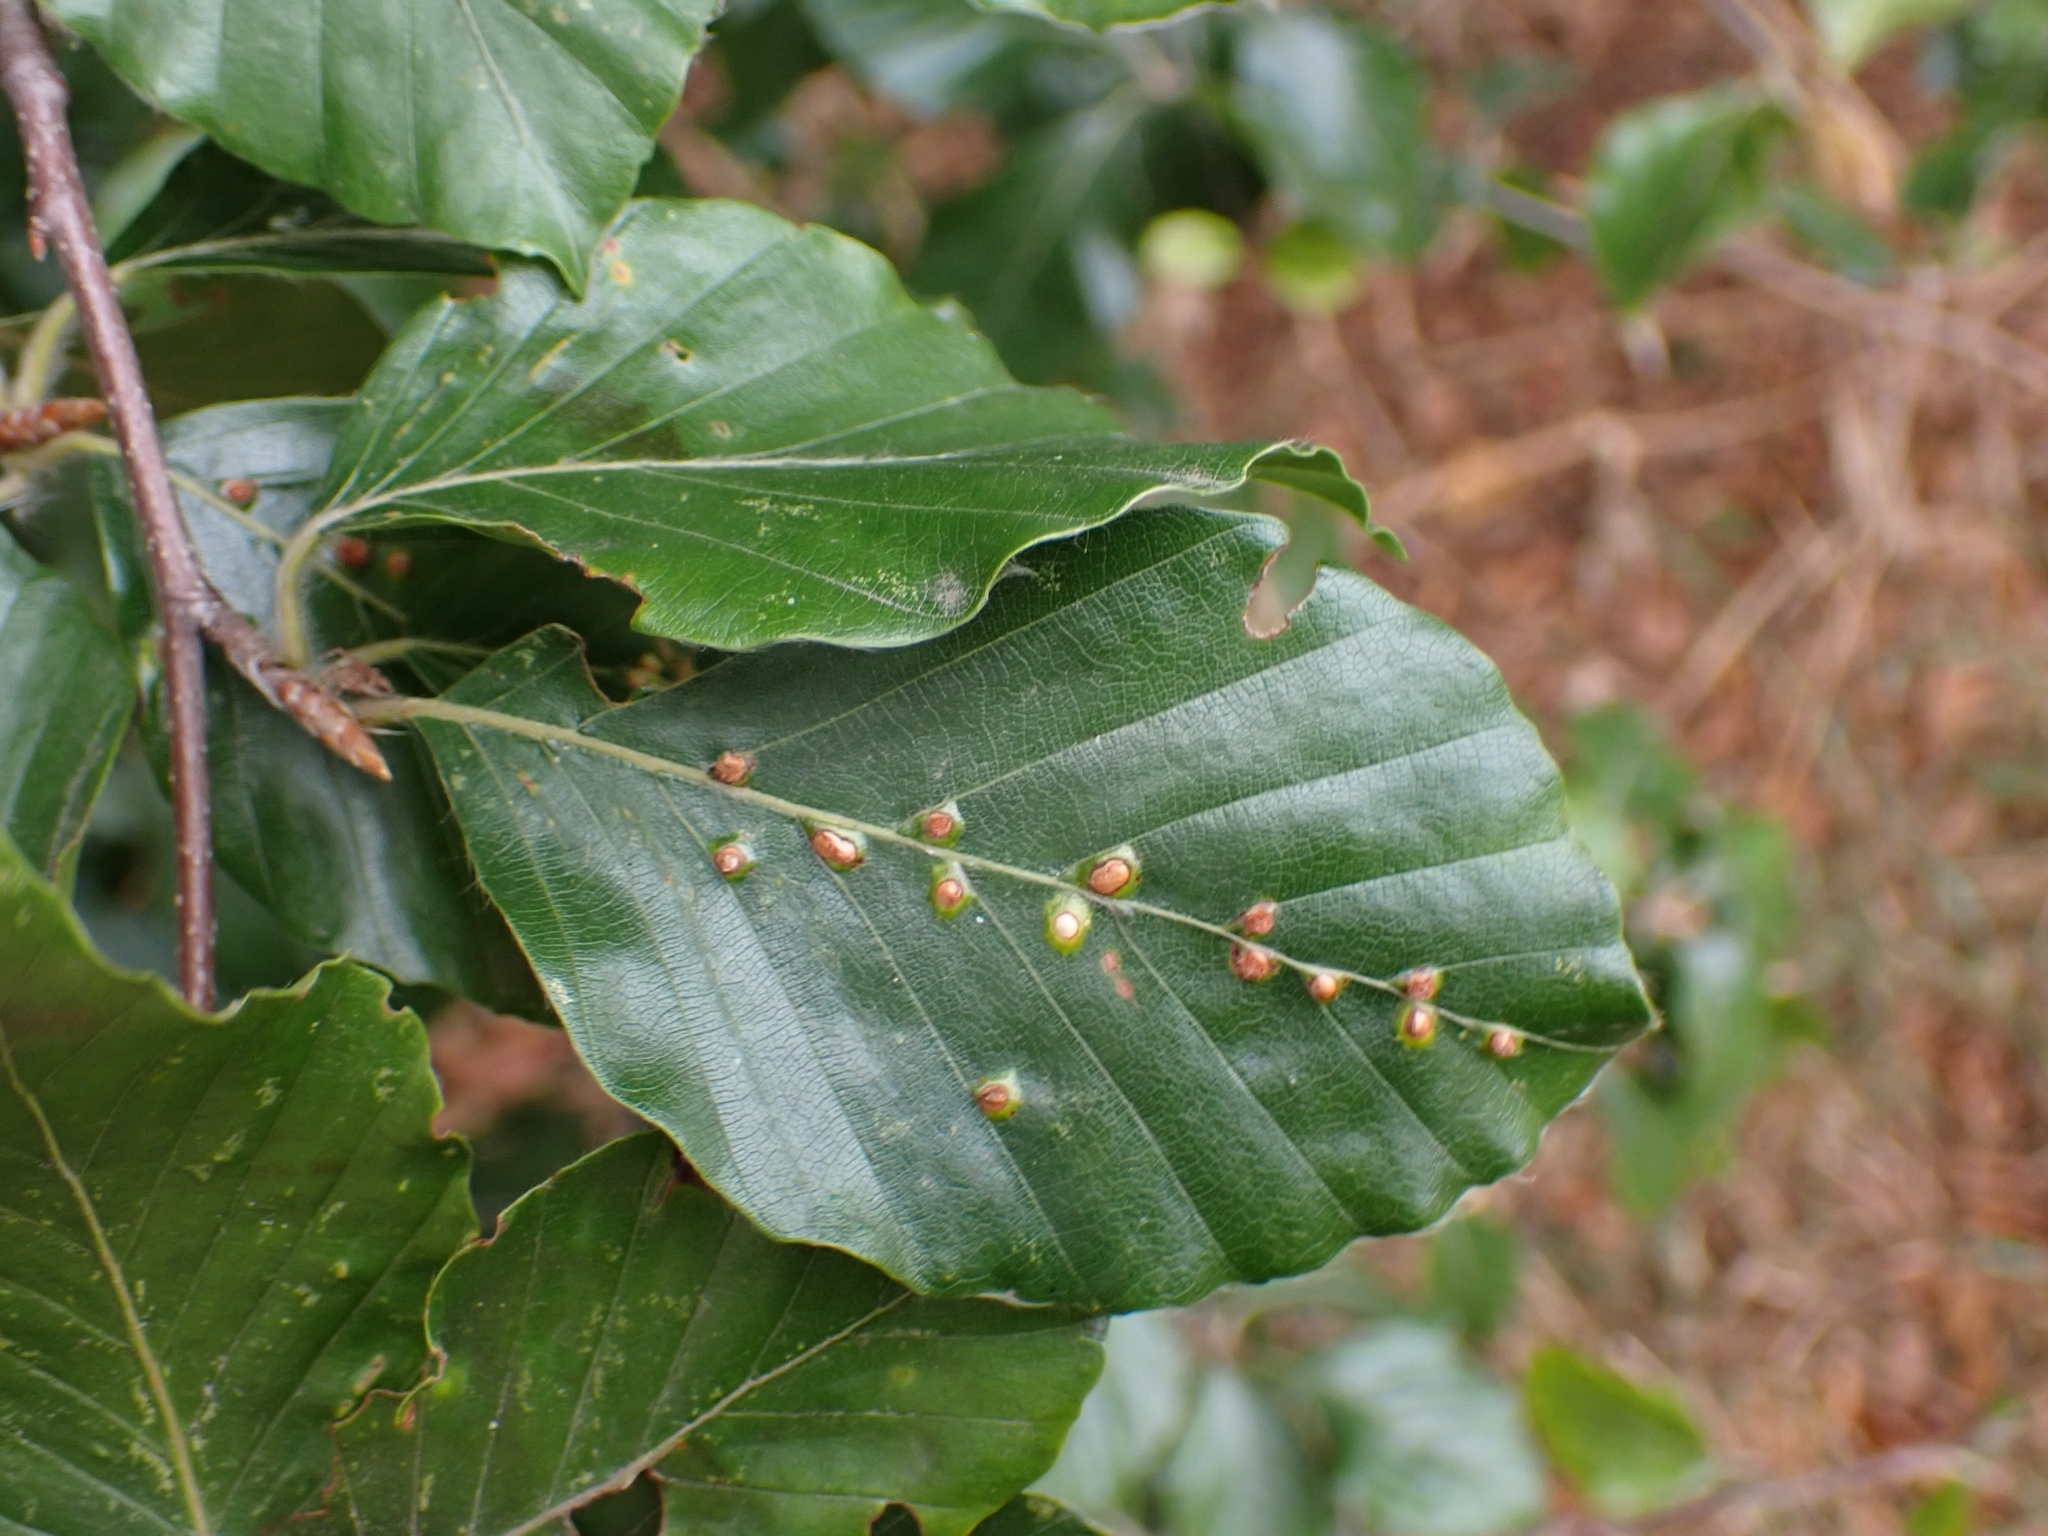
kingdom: Animalia
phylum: Arthropoda
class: Insecta
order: Diptera
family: Cecidomyiidae
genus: Hartigiola
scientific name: Hartigiola annulipes
